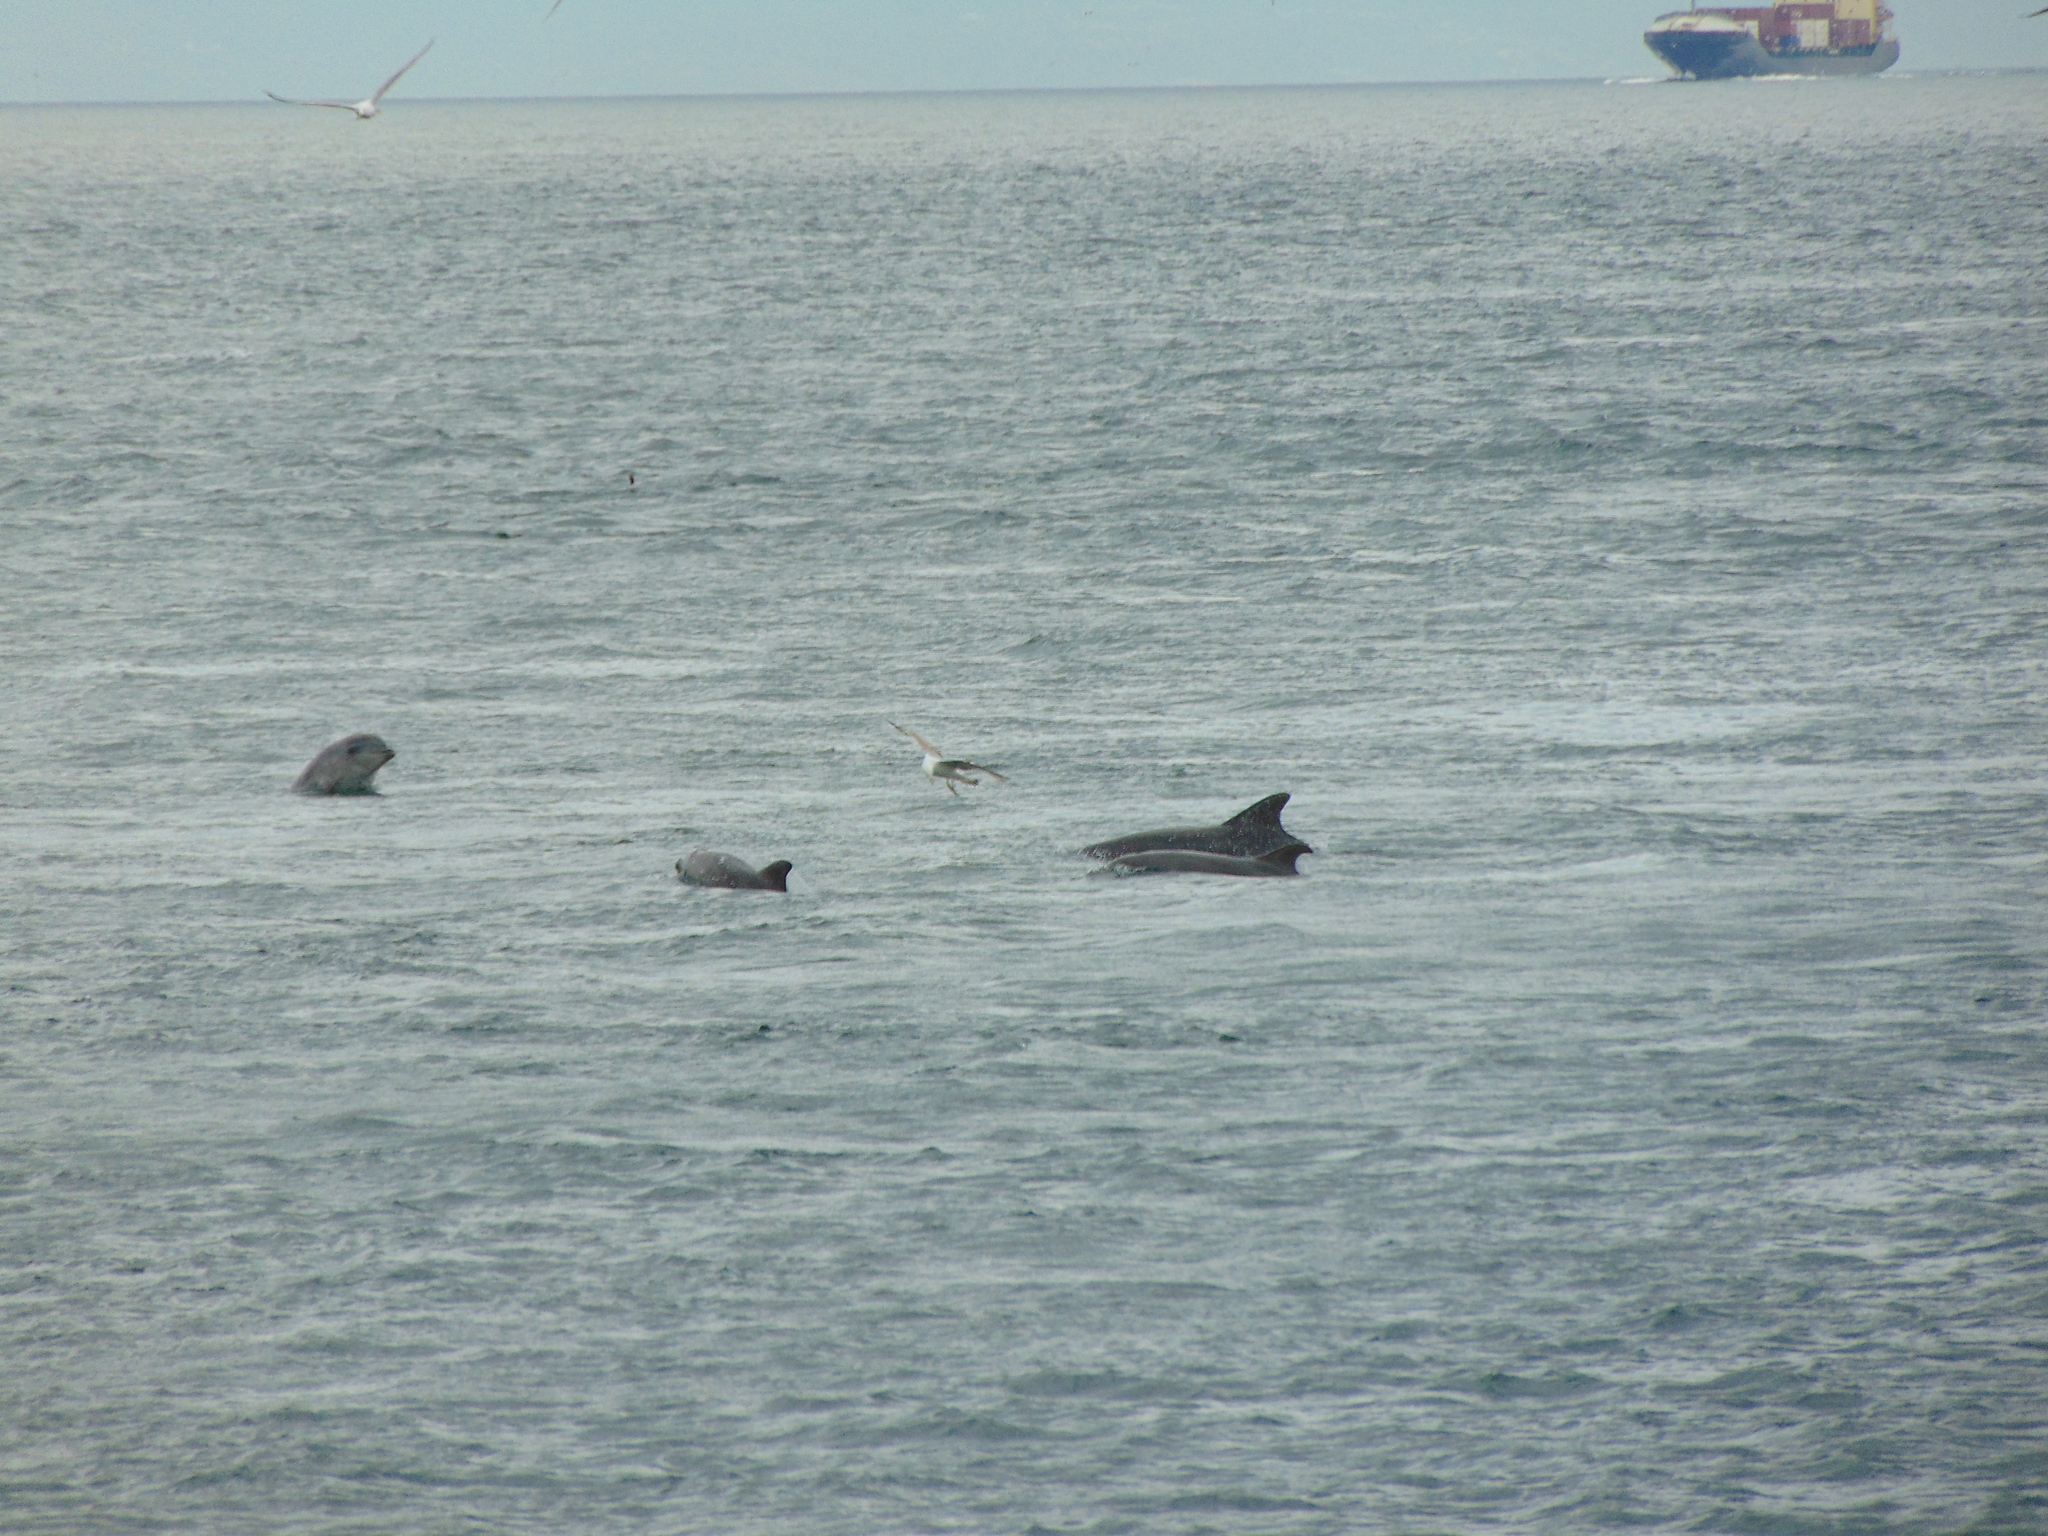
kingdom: Animalia
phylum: Chordata
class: Mammalia
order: Cetacea
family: Delphinidae
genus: Tursiops
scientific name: Tursiops truncatus
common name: Bottlenose dolphin
